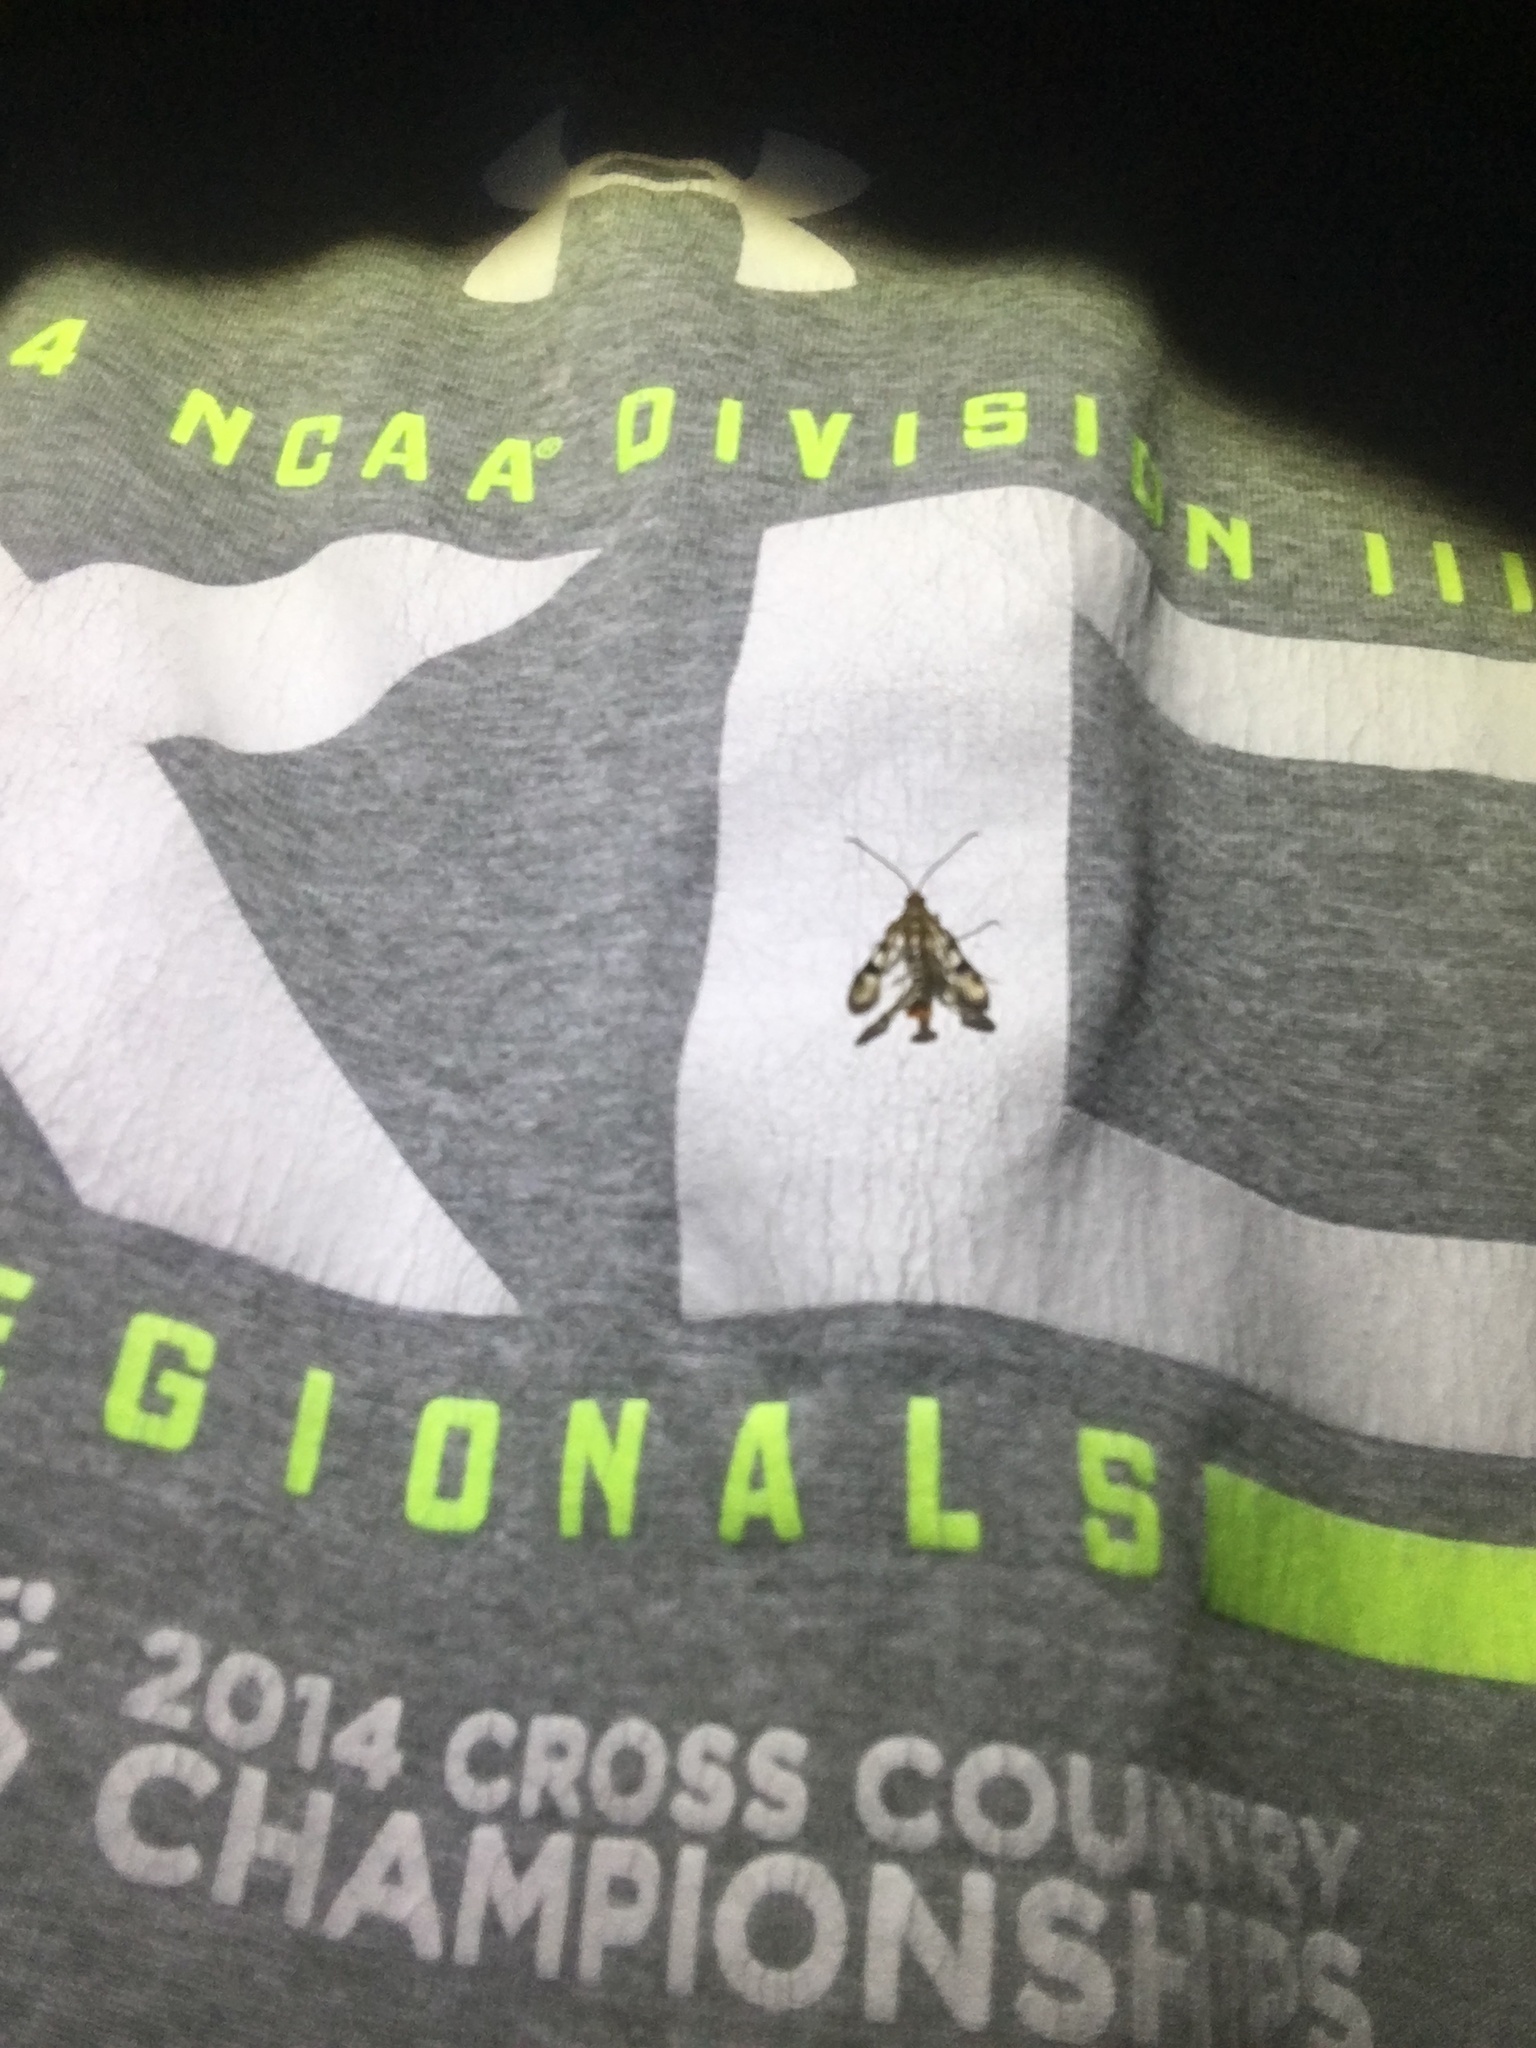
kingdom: Animalia
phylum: Arthropoda
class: Insecta
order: Lepidoptera
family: Sesiidae
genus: Synanthedon
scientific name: Synanthedon acerni
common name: Maple callus borer moth
